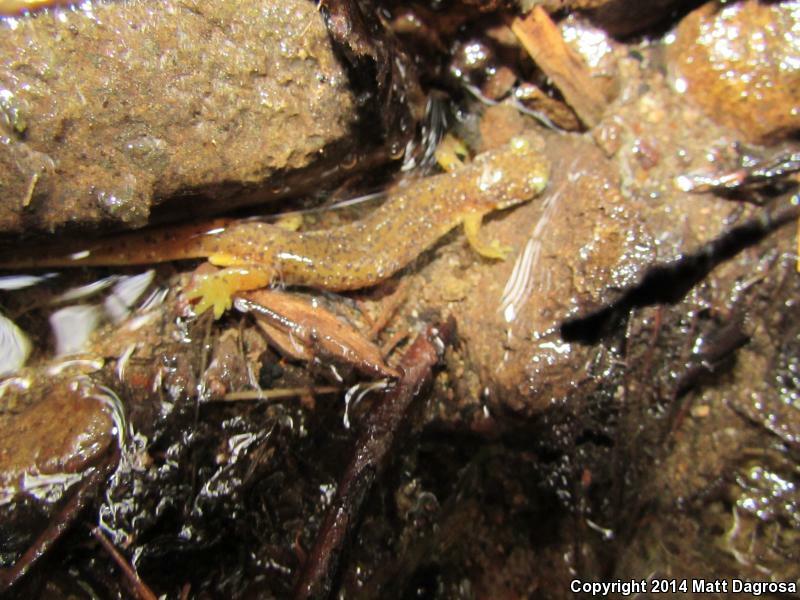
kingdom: Animalia
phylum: Chordata
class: Amphibia
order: Caudata
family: Rhyacotritonidae
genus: Rhyacotriton
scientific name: Rhyacotriton cascadae
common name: Cascade torrent salamander
